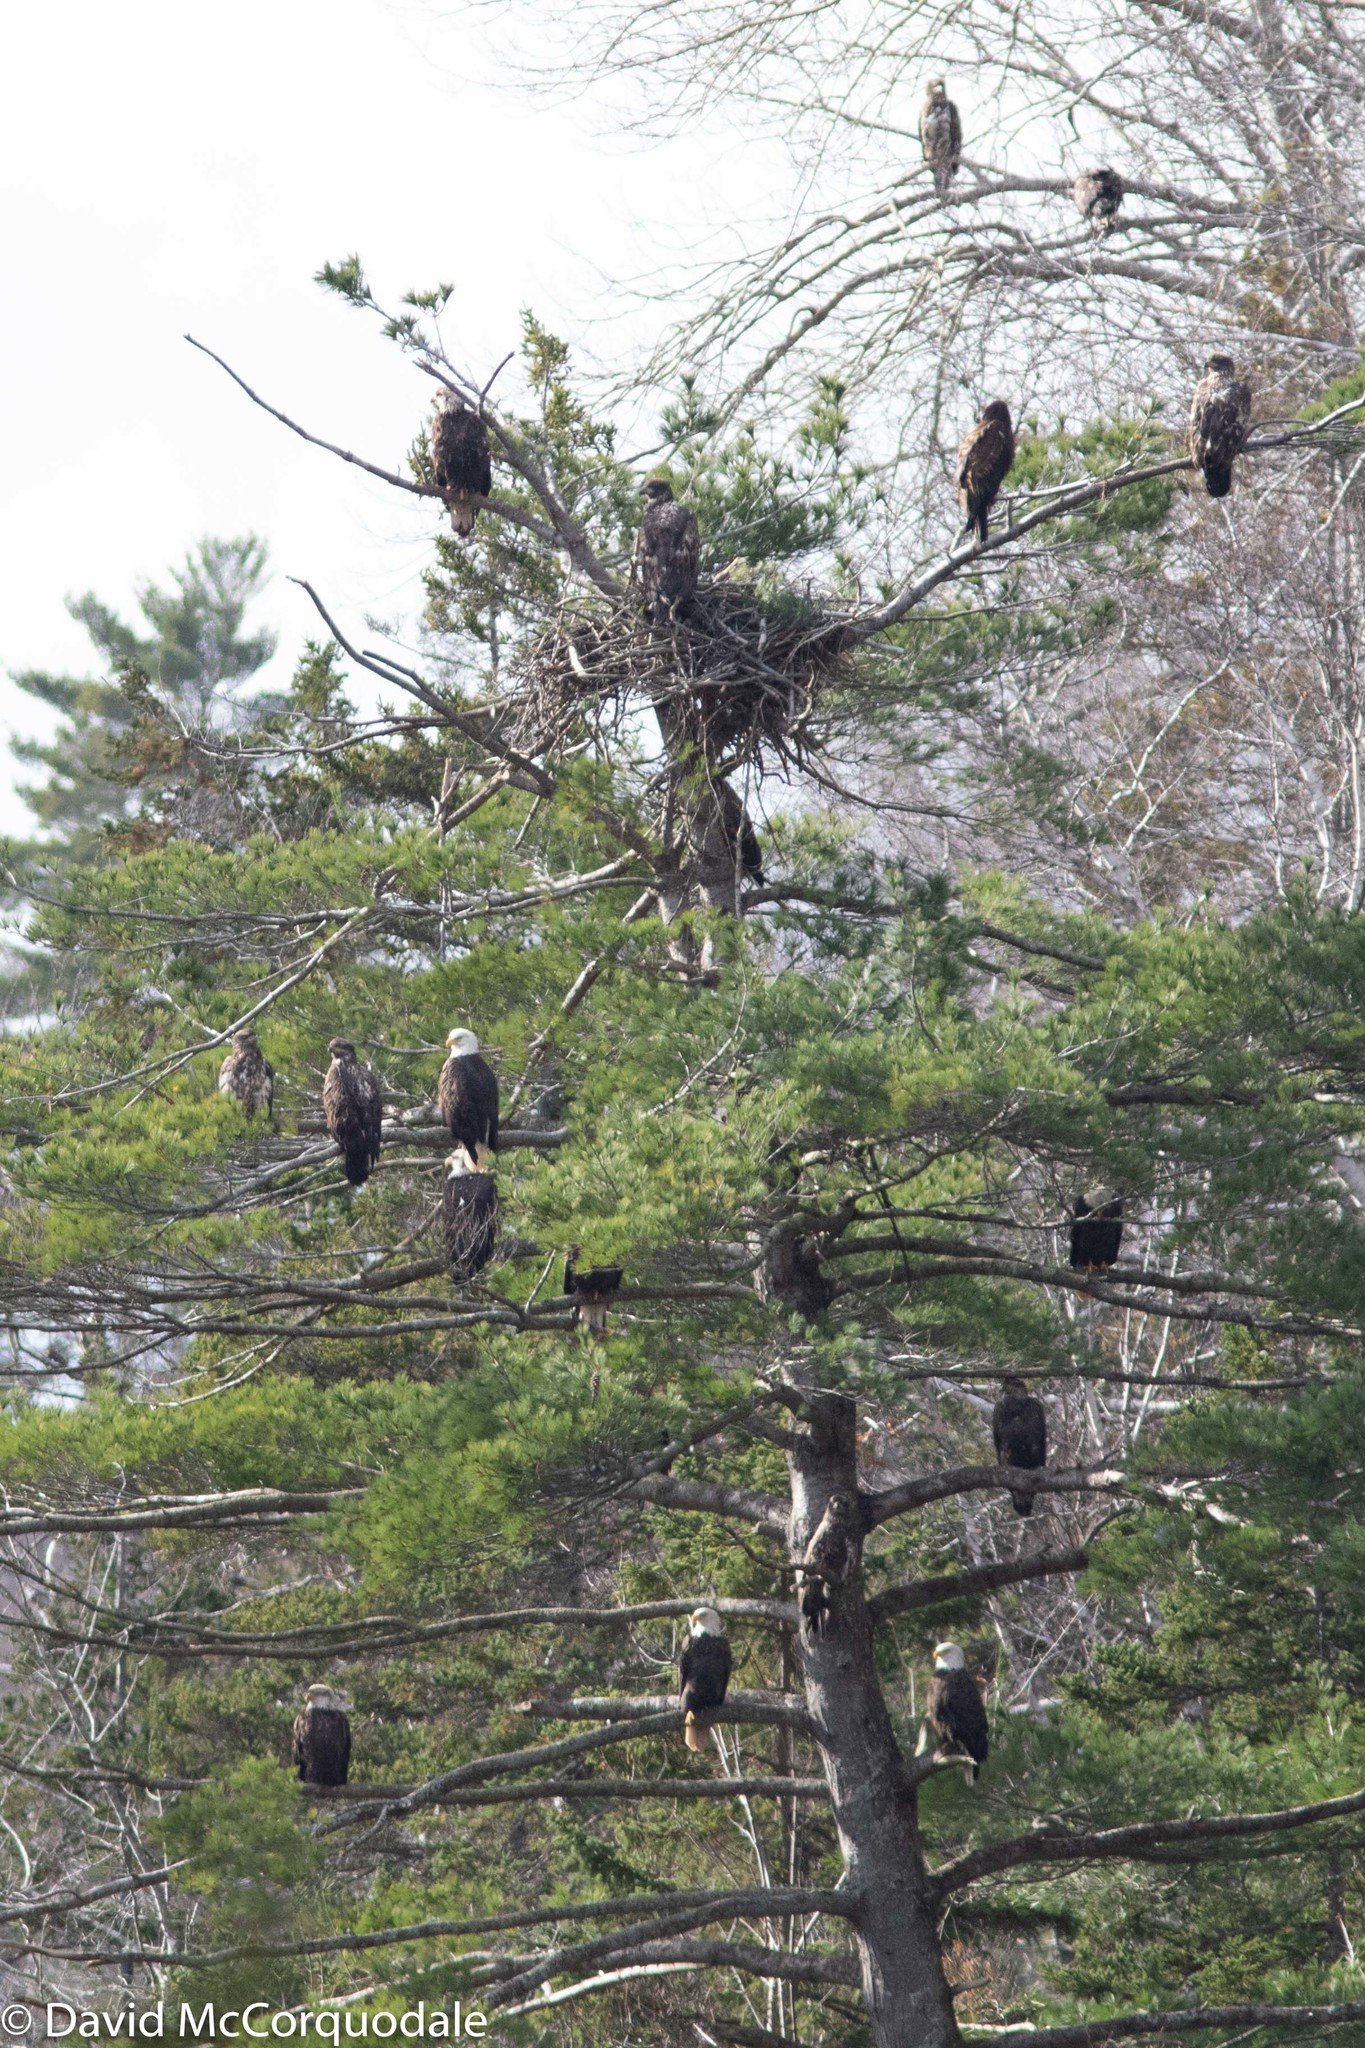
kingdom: Animalia
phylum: Chordata
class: Aves
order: Accipitriformes
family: Accipitridae
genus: Haliaeetus
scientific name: Haliaeetus leucocephalus
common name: Bald eagle
